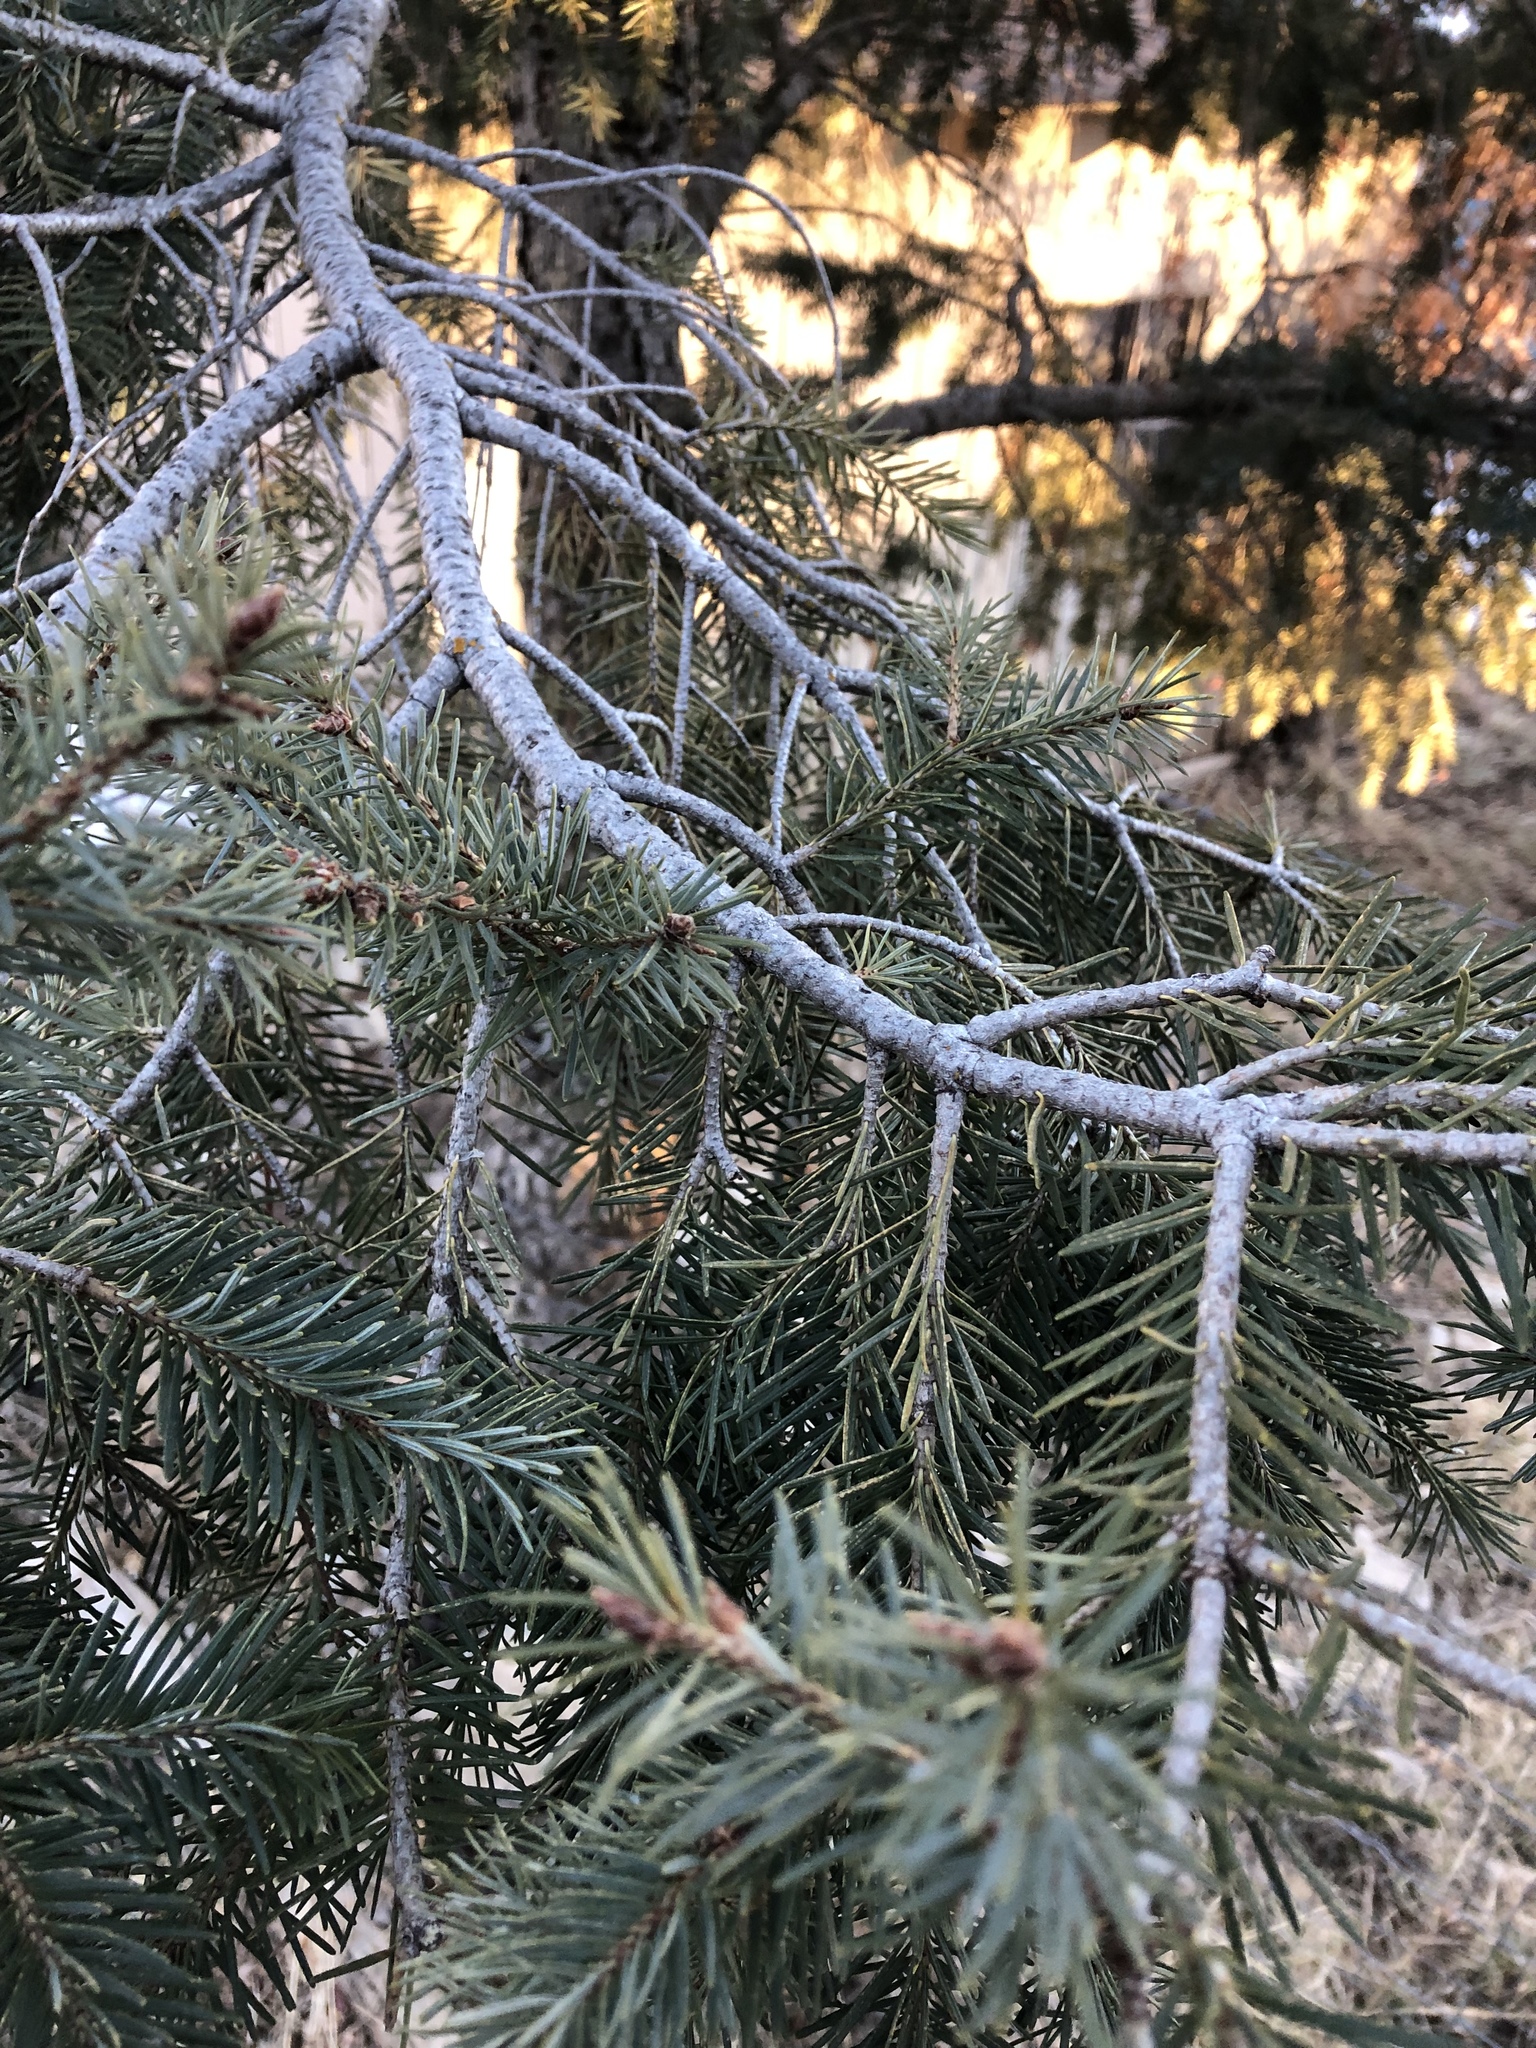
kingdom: Plantae
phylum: Tracheophyta
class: Pinopsida
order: Pinales
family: Pinaceae
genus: Pseudotsuga
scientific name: Pseudotsuga menziesii
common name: Douglas fir
